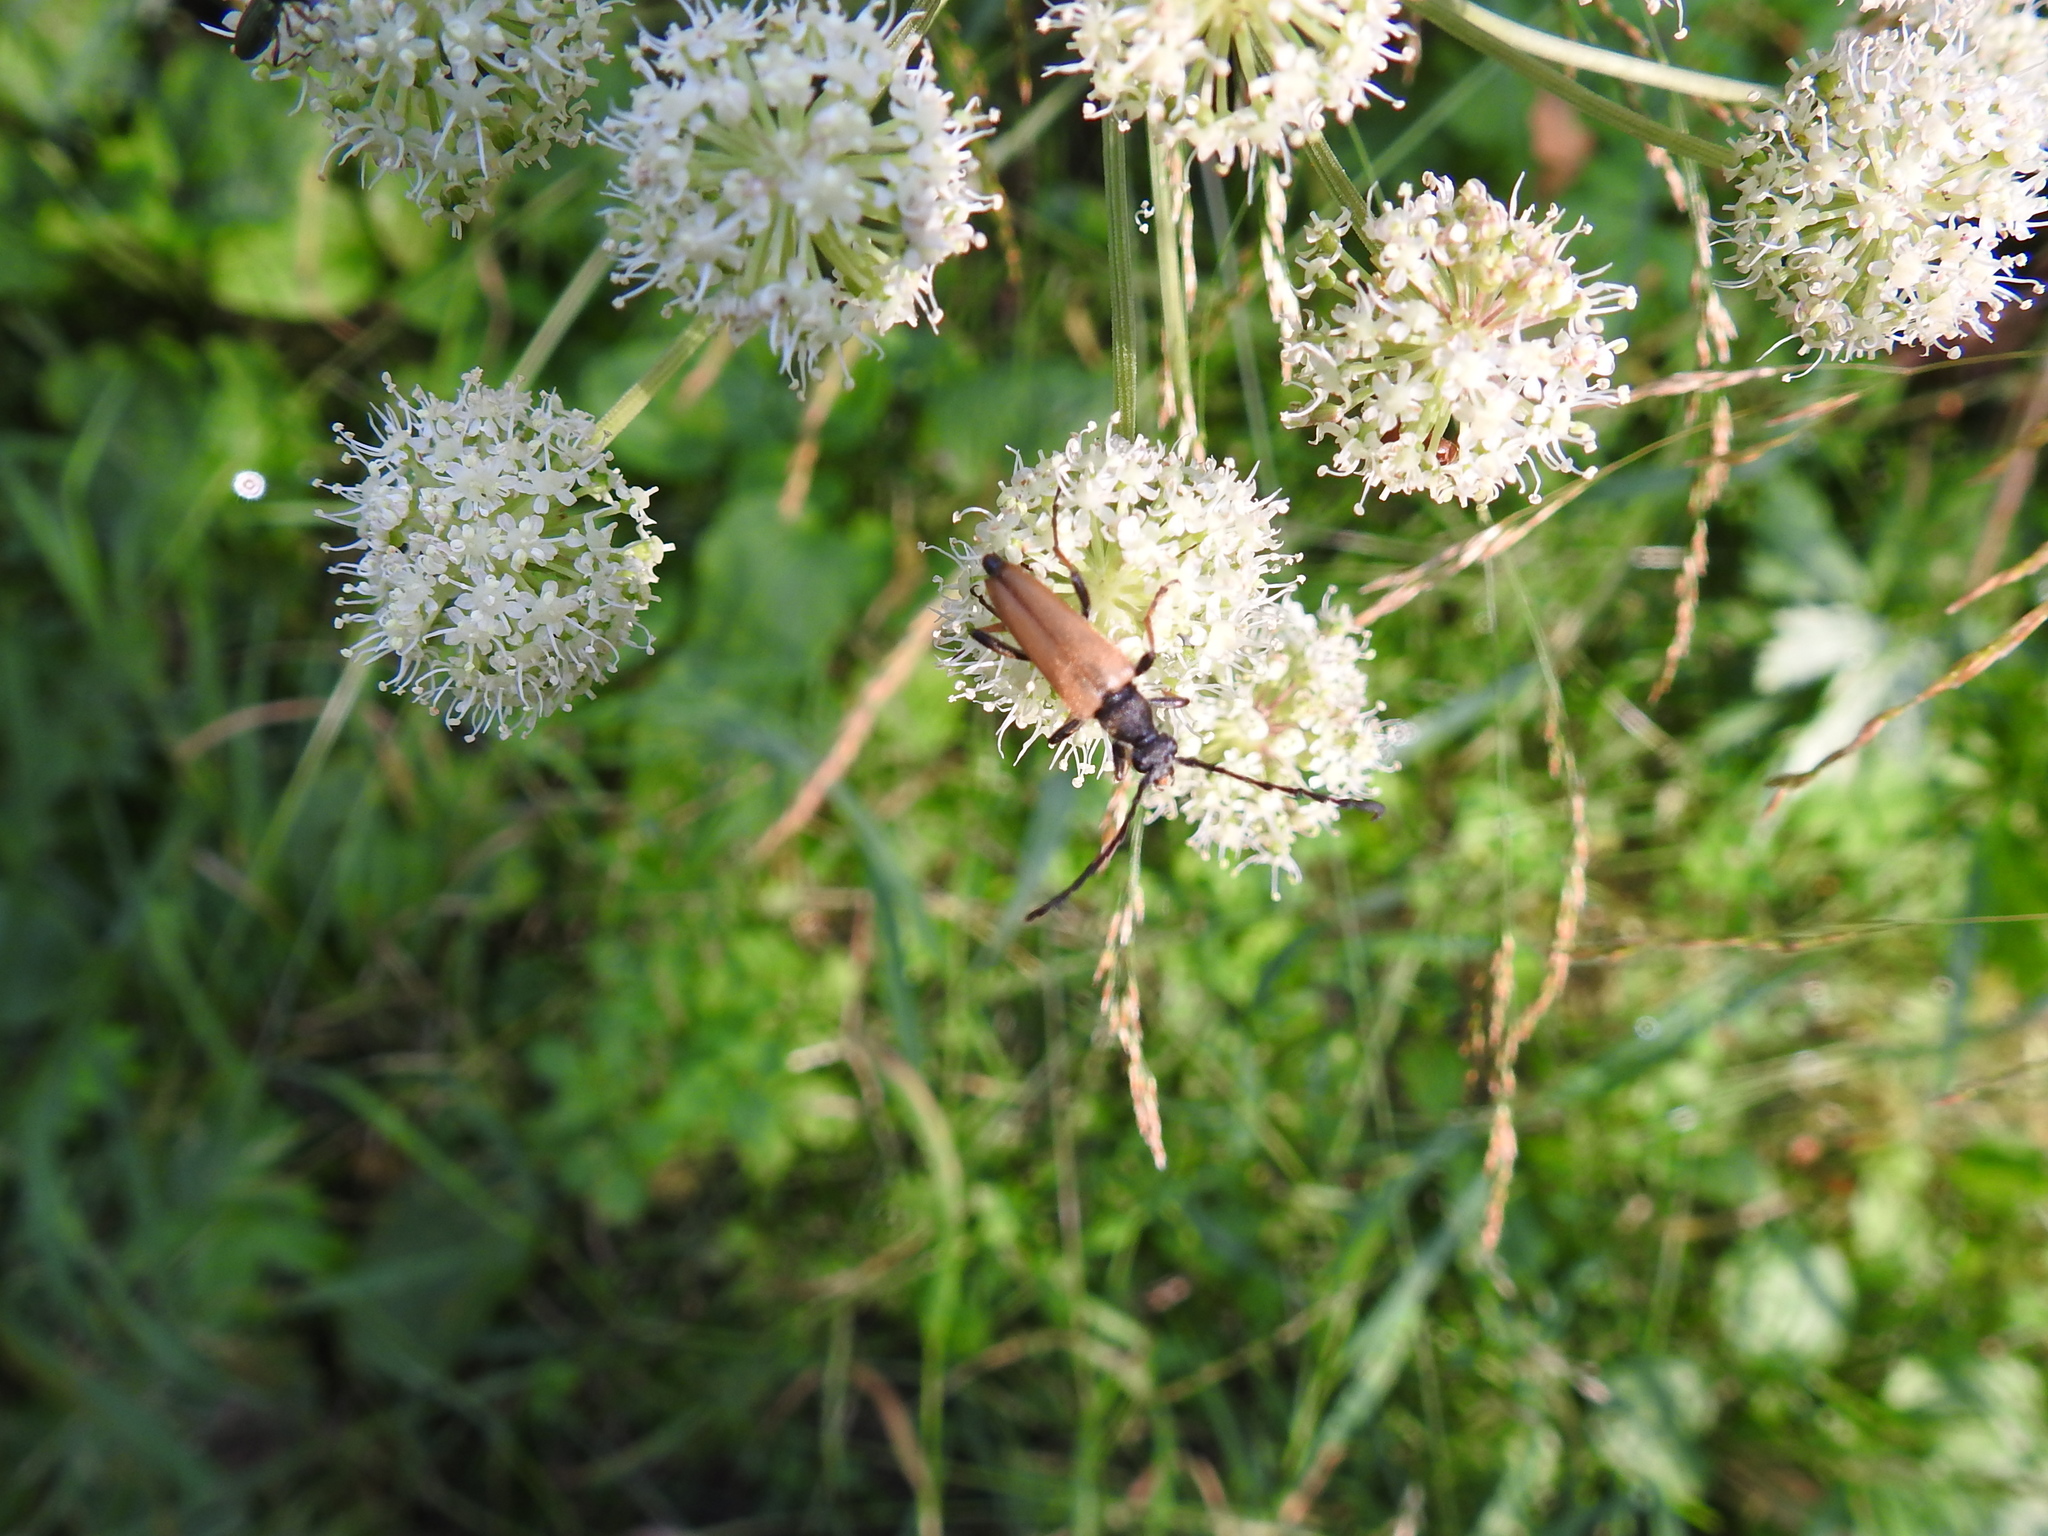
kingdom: Animalia
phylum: Arthropoda
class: Insecta
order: Coleoptera
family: Cerambycidae
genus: Stictoleptura
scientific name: Stictoleptura rubra
